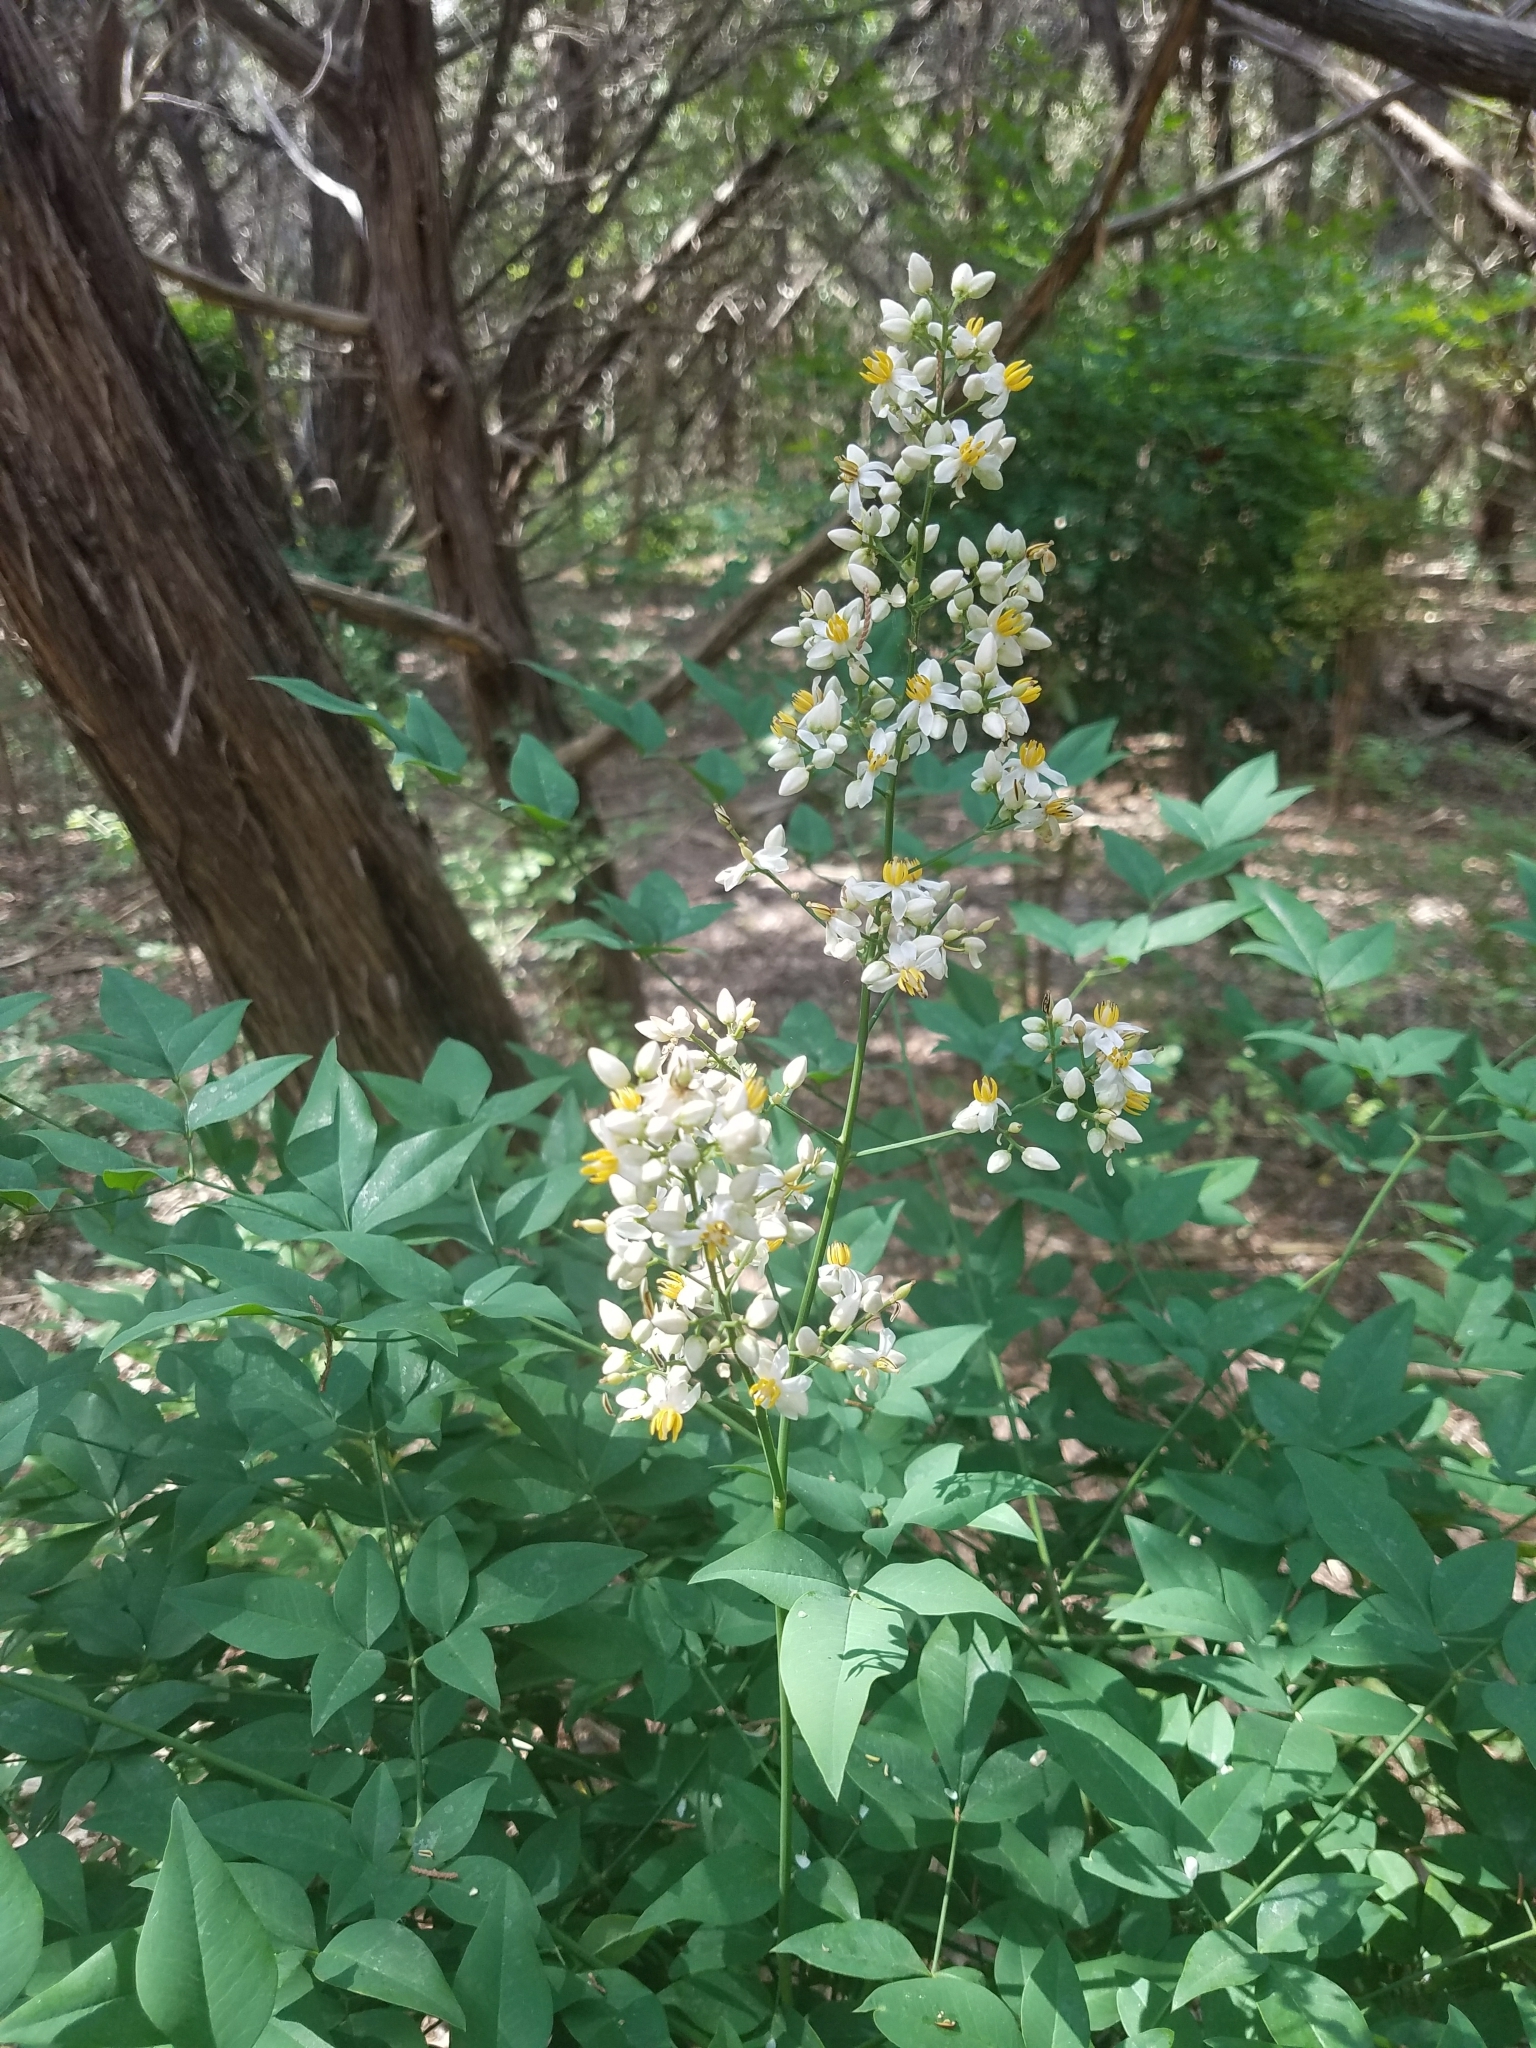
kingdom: Plantae
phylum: Tracheophyta
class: Magnoliopsida
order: Ranunculales
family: Berberidaceae
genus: Nandina
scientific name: Nandina domestica
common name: Sacred bamboo
